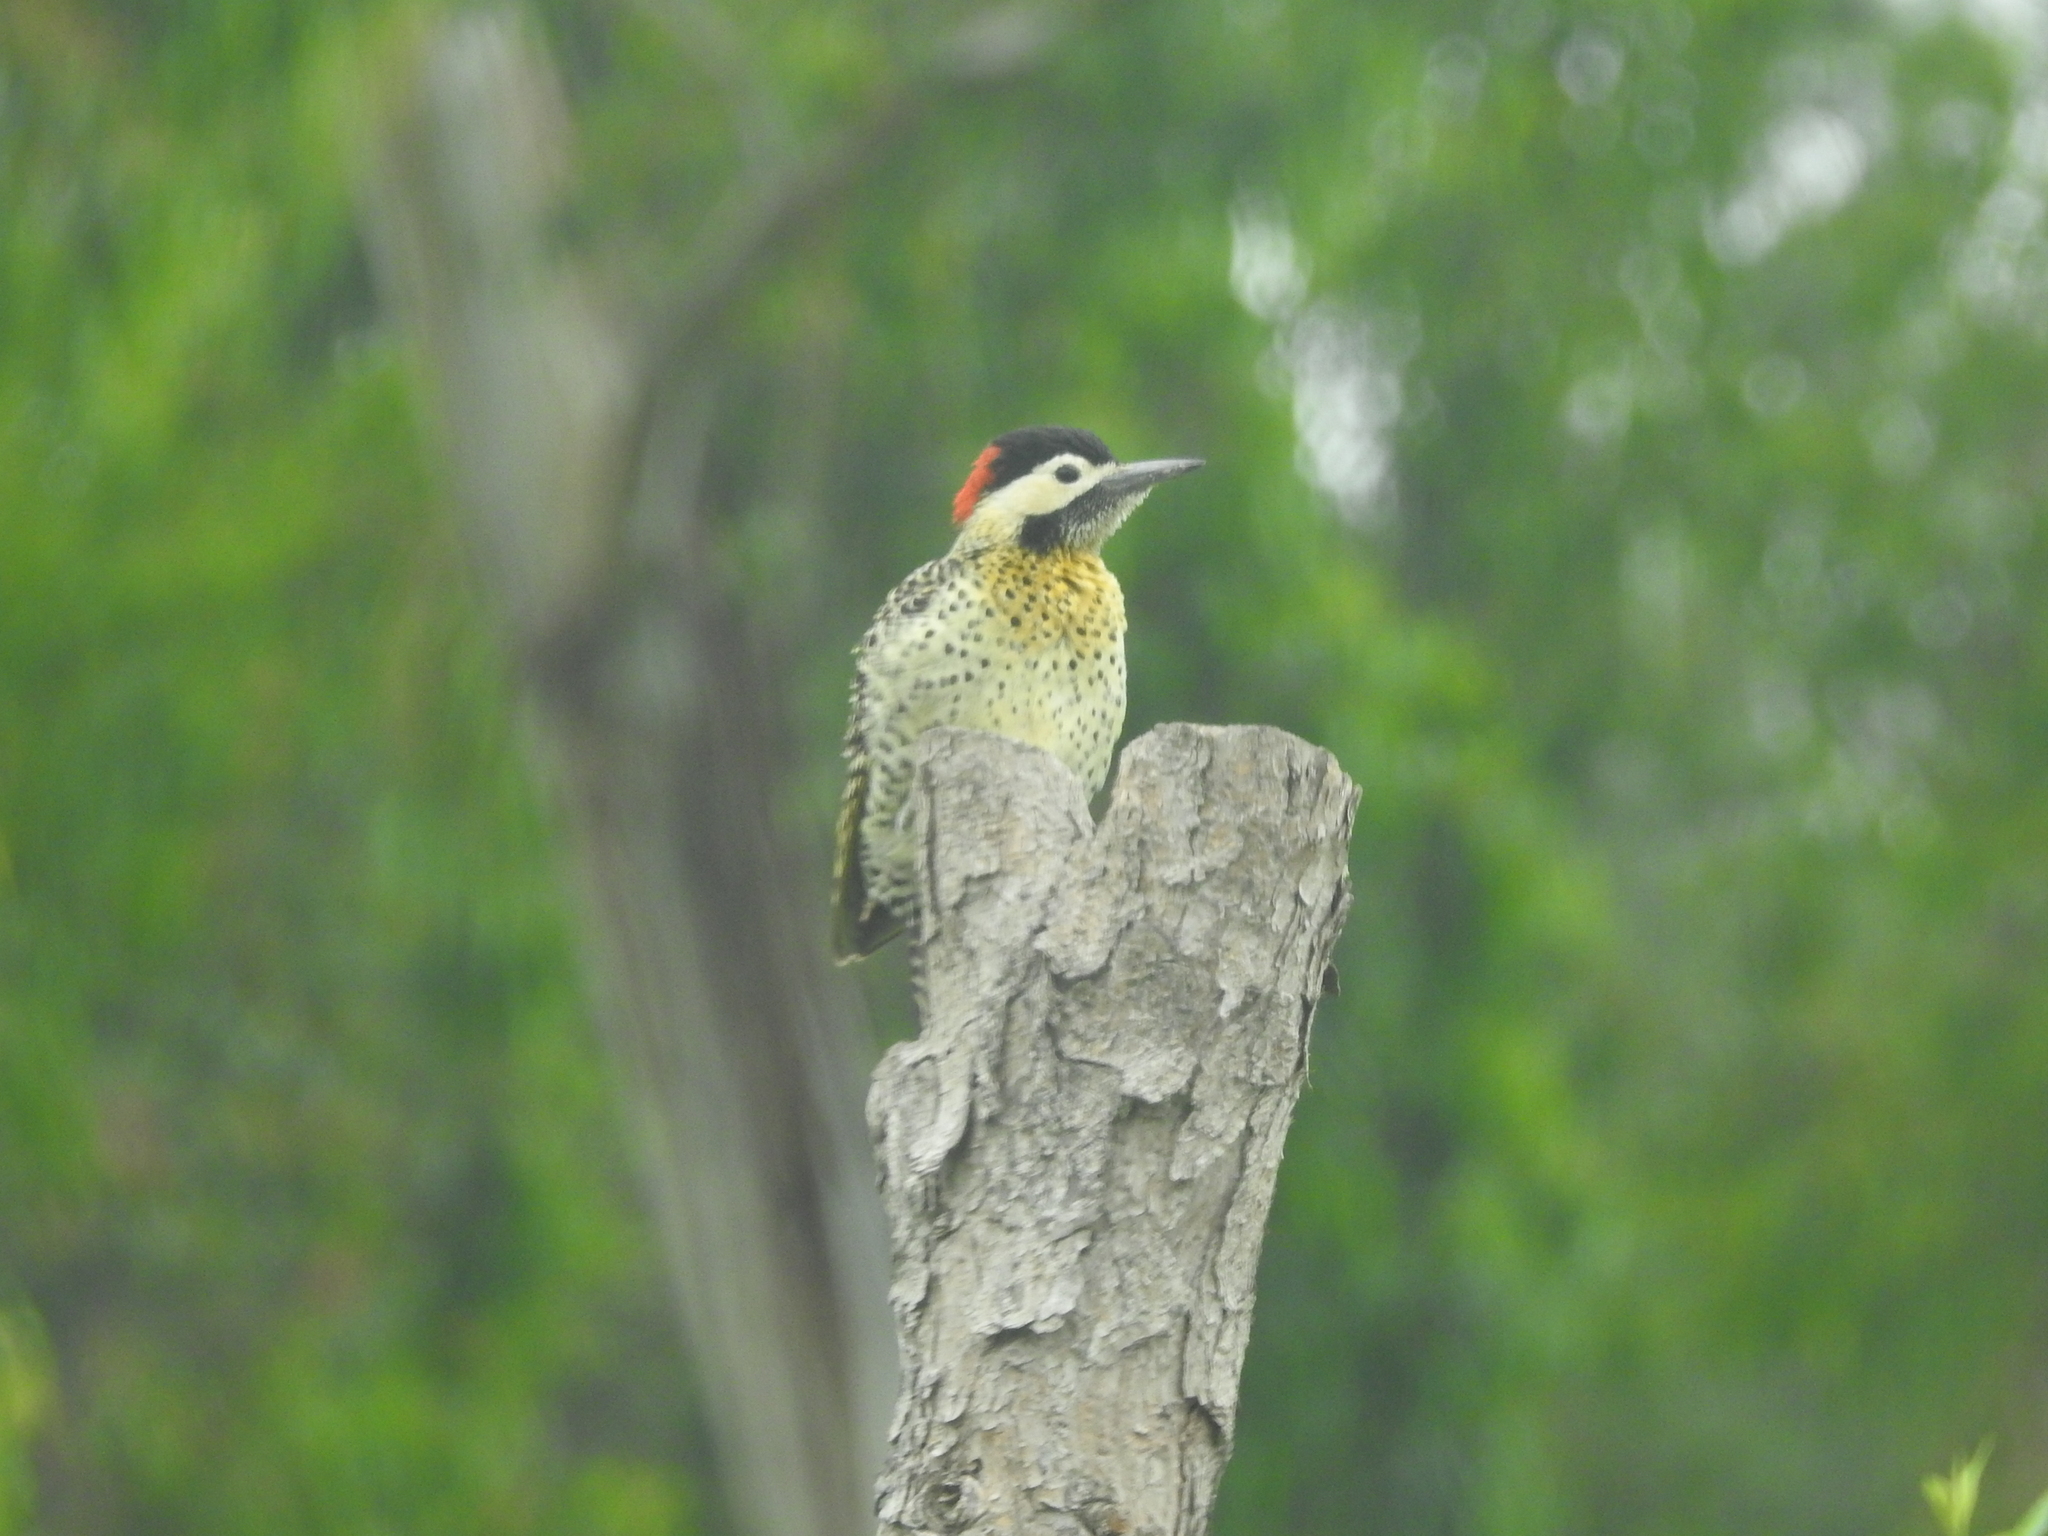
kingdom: Animalia
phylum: Chordata
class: Aves
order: Piciformes
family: Picidae
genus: Colaptes
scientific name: Colaptes melanochloros
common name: Green-barred woodpecker
